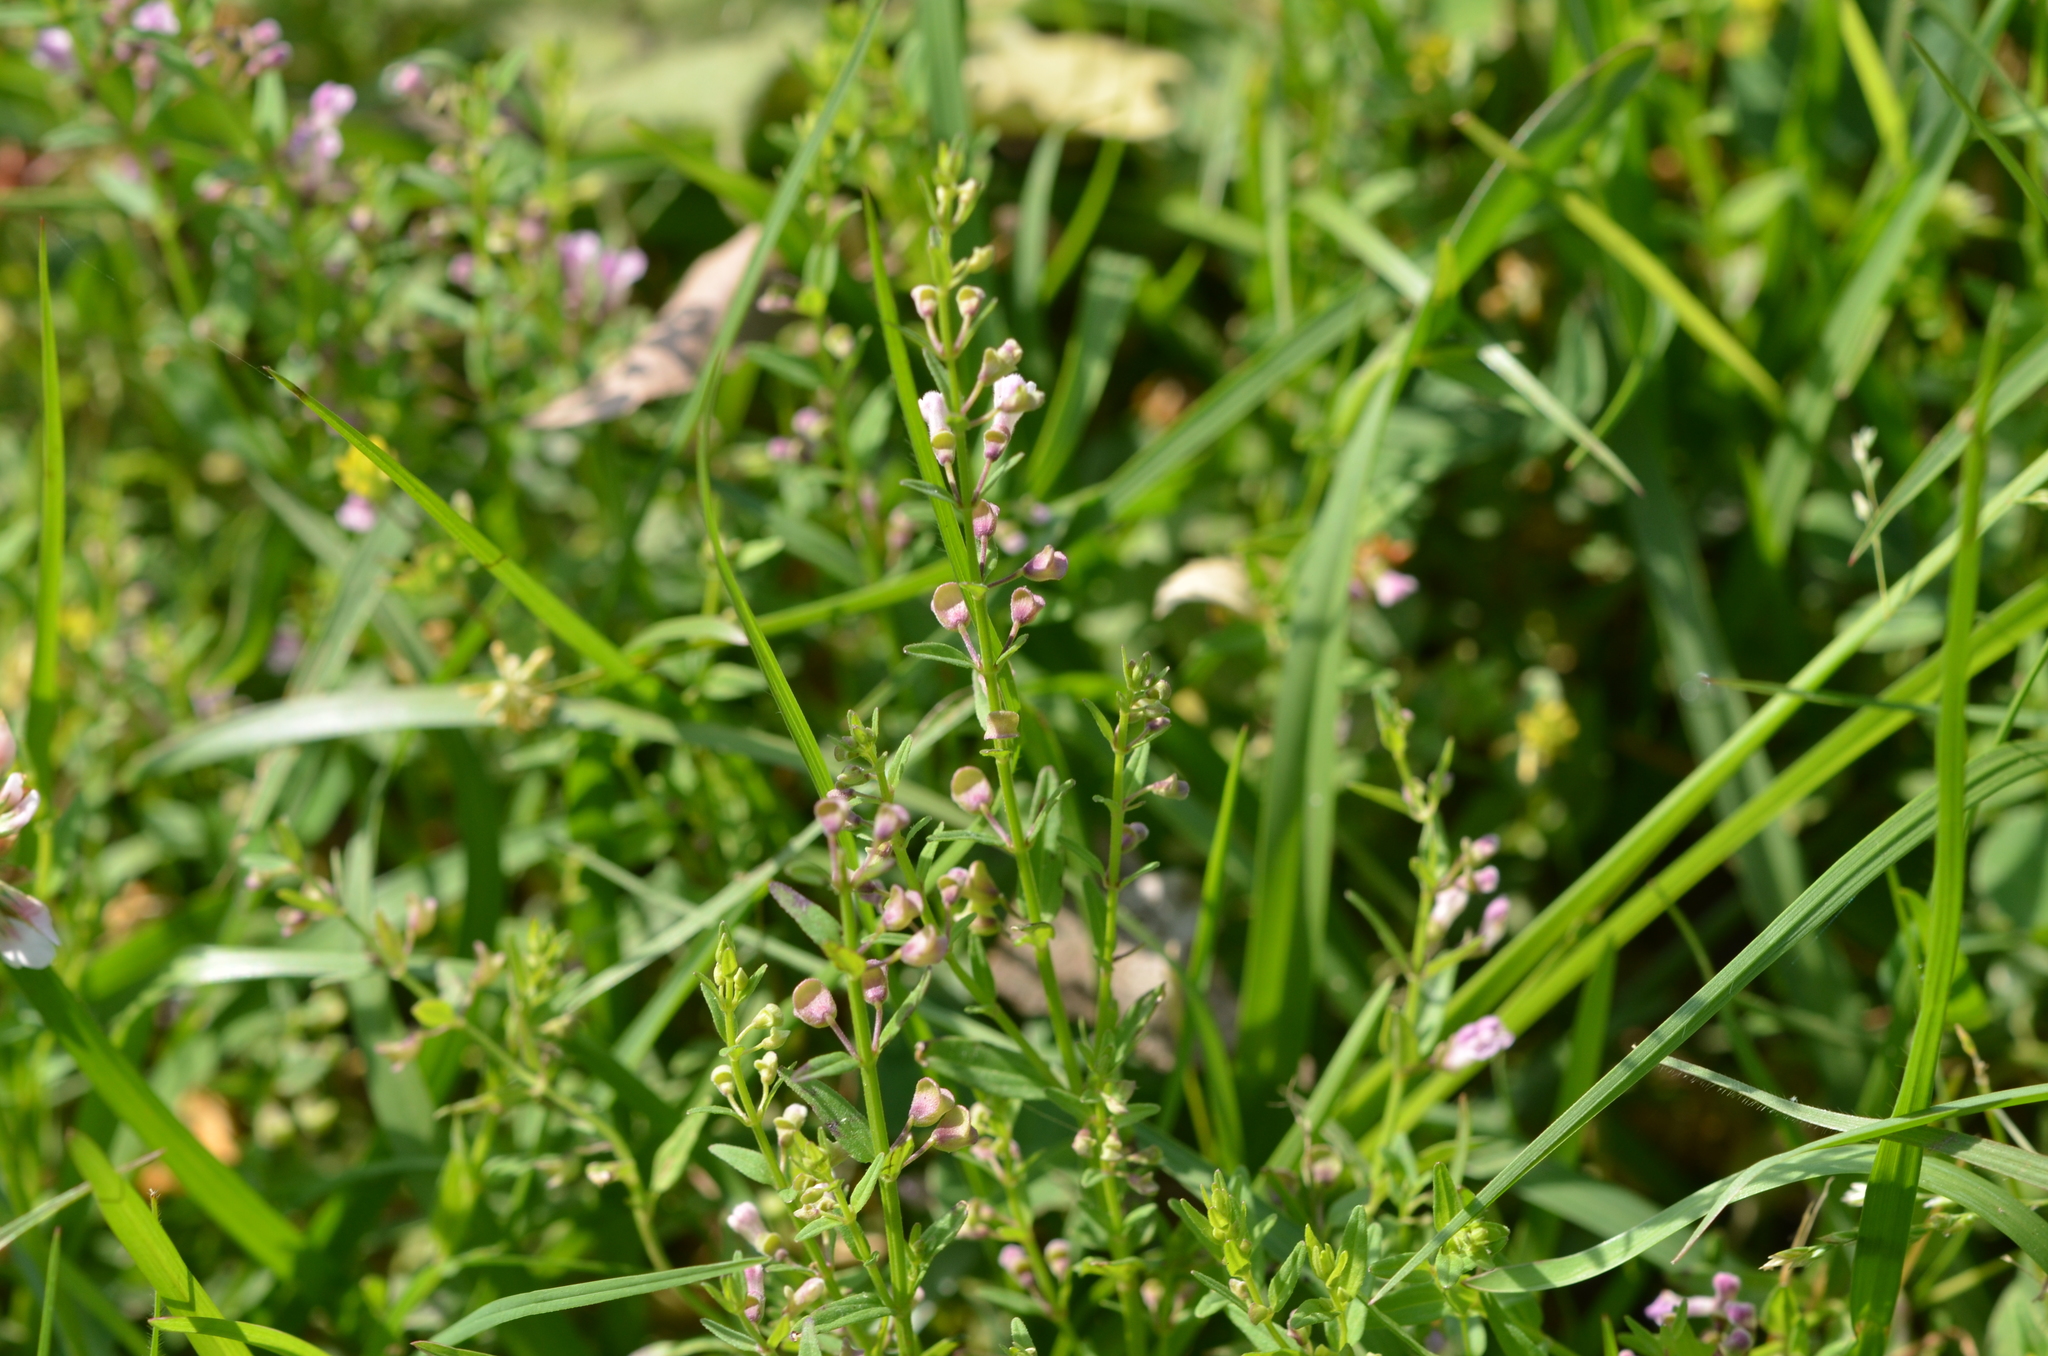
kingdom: Plantae
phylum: Tracheophyta
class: Magnoliopsida
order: Lamiales
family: Lamiaceae
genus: Scutellaria
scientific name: Scutellaria racemosa
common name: South american skullcap
